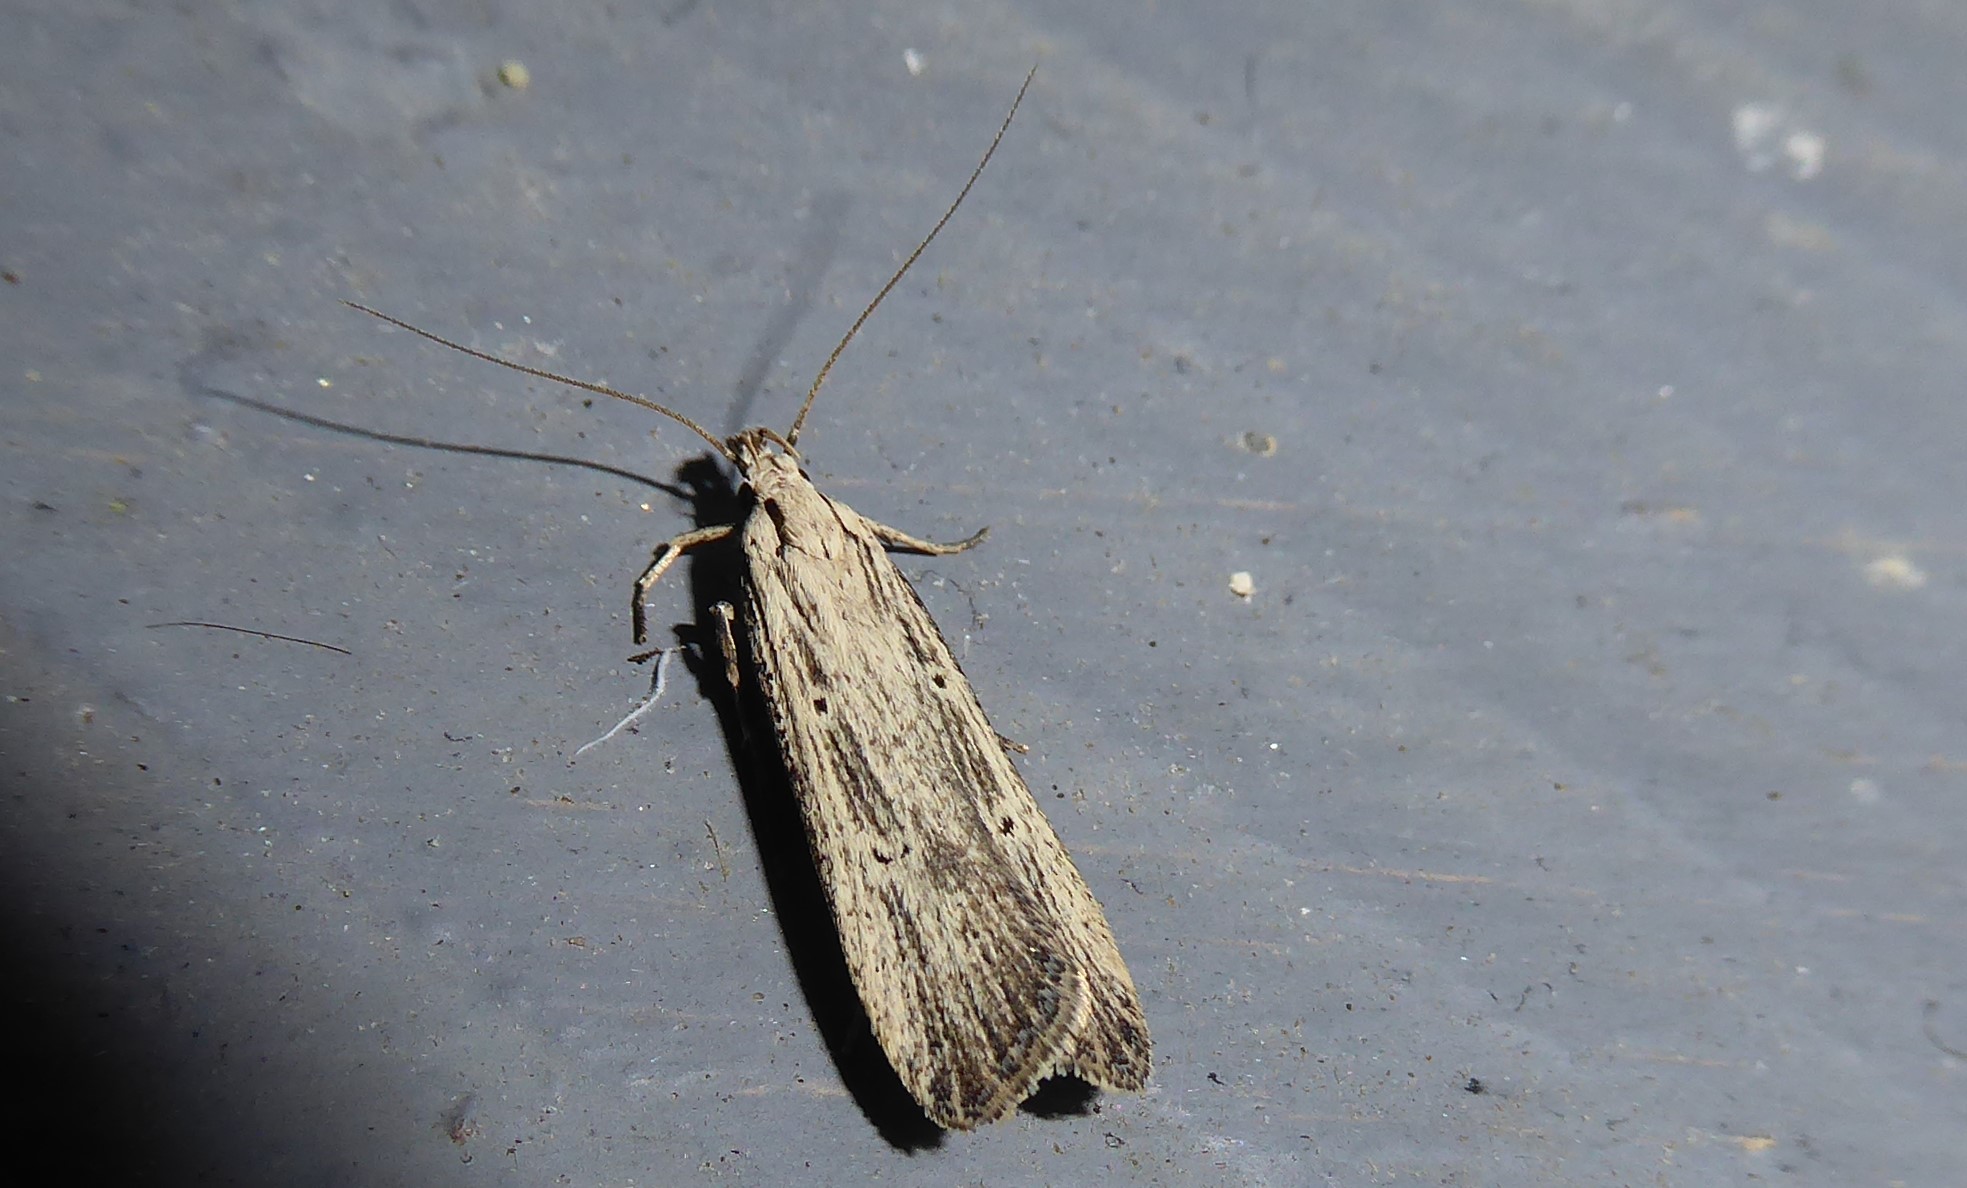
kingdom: Animalia
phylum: Arthropoda
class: Insecta
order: Lepidoptera
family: Gelechiidae
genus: Anisoplaca
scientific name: Anisoplaca ptyoptera
